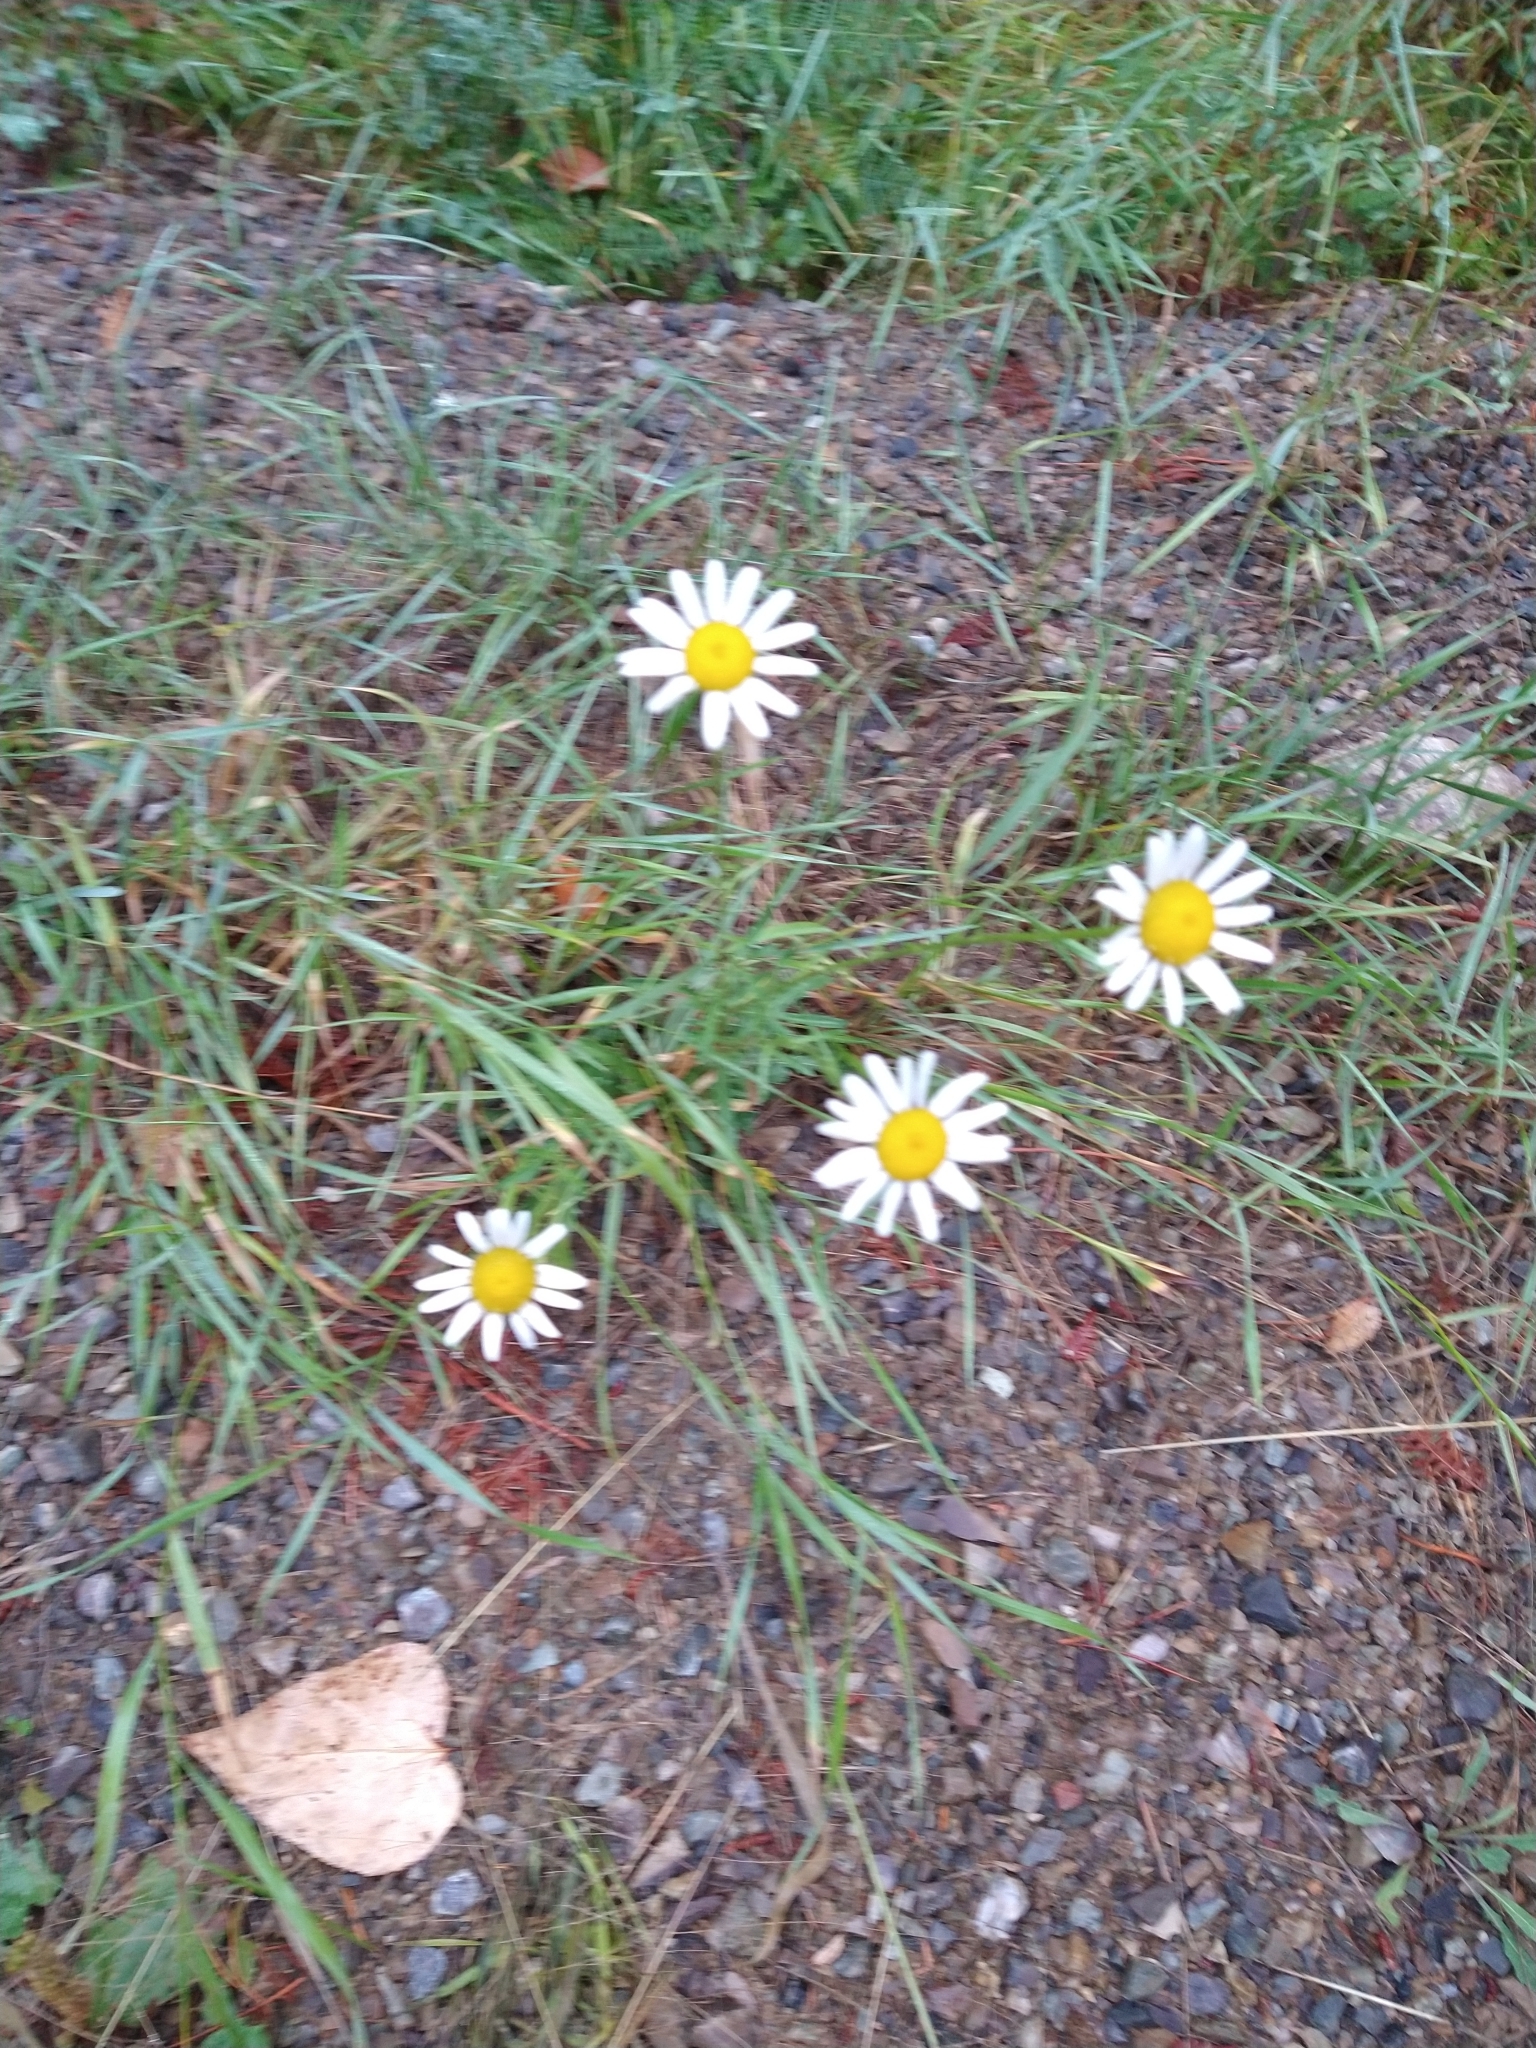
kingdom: Plantae
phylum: Tracheophyta
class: Magnoliopsida
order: Asterales
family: Asteraceae
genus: Leucanthemum
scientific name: Leucanthemum vulgare
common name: Oxeye daisy
